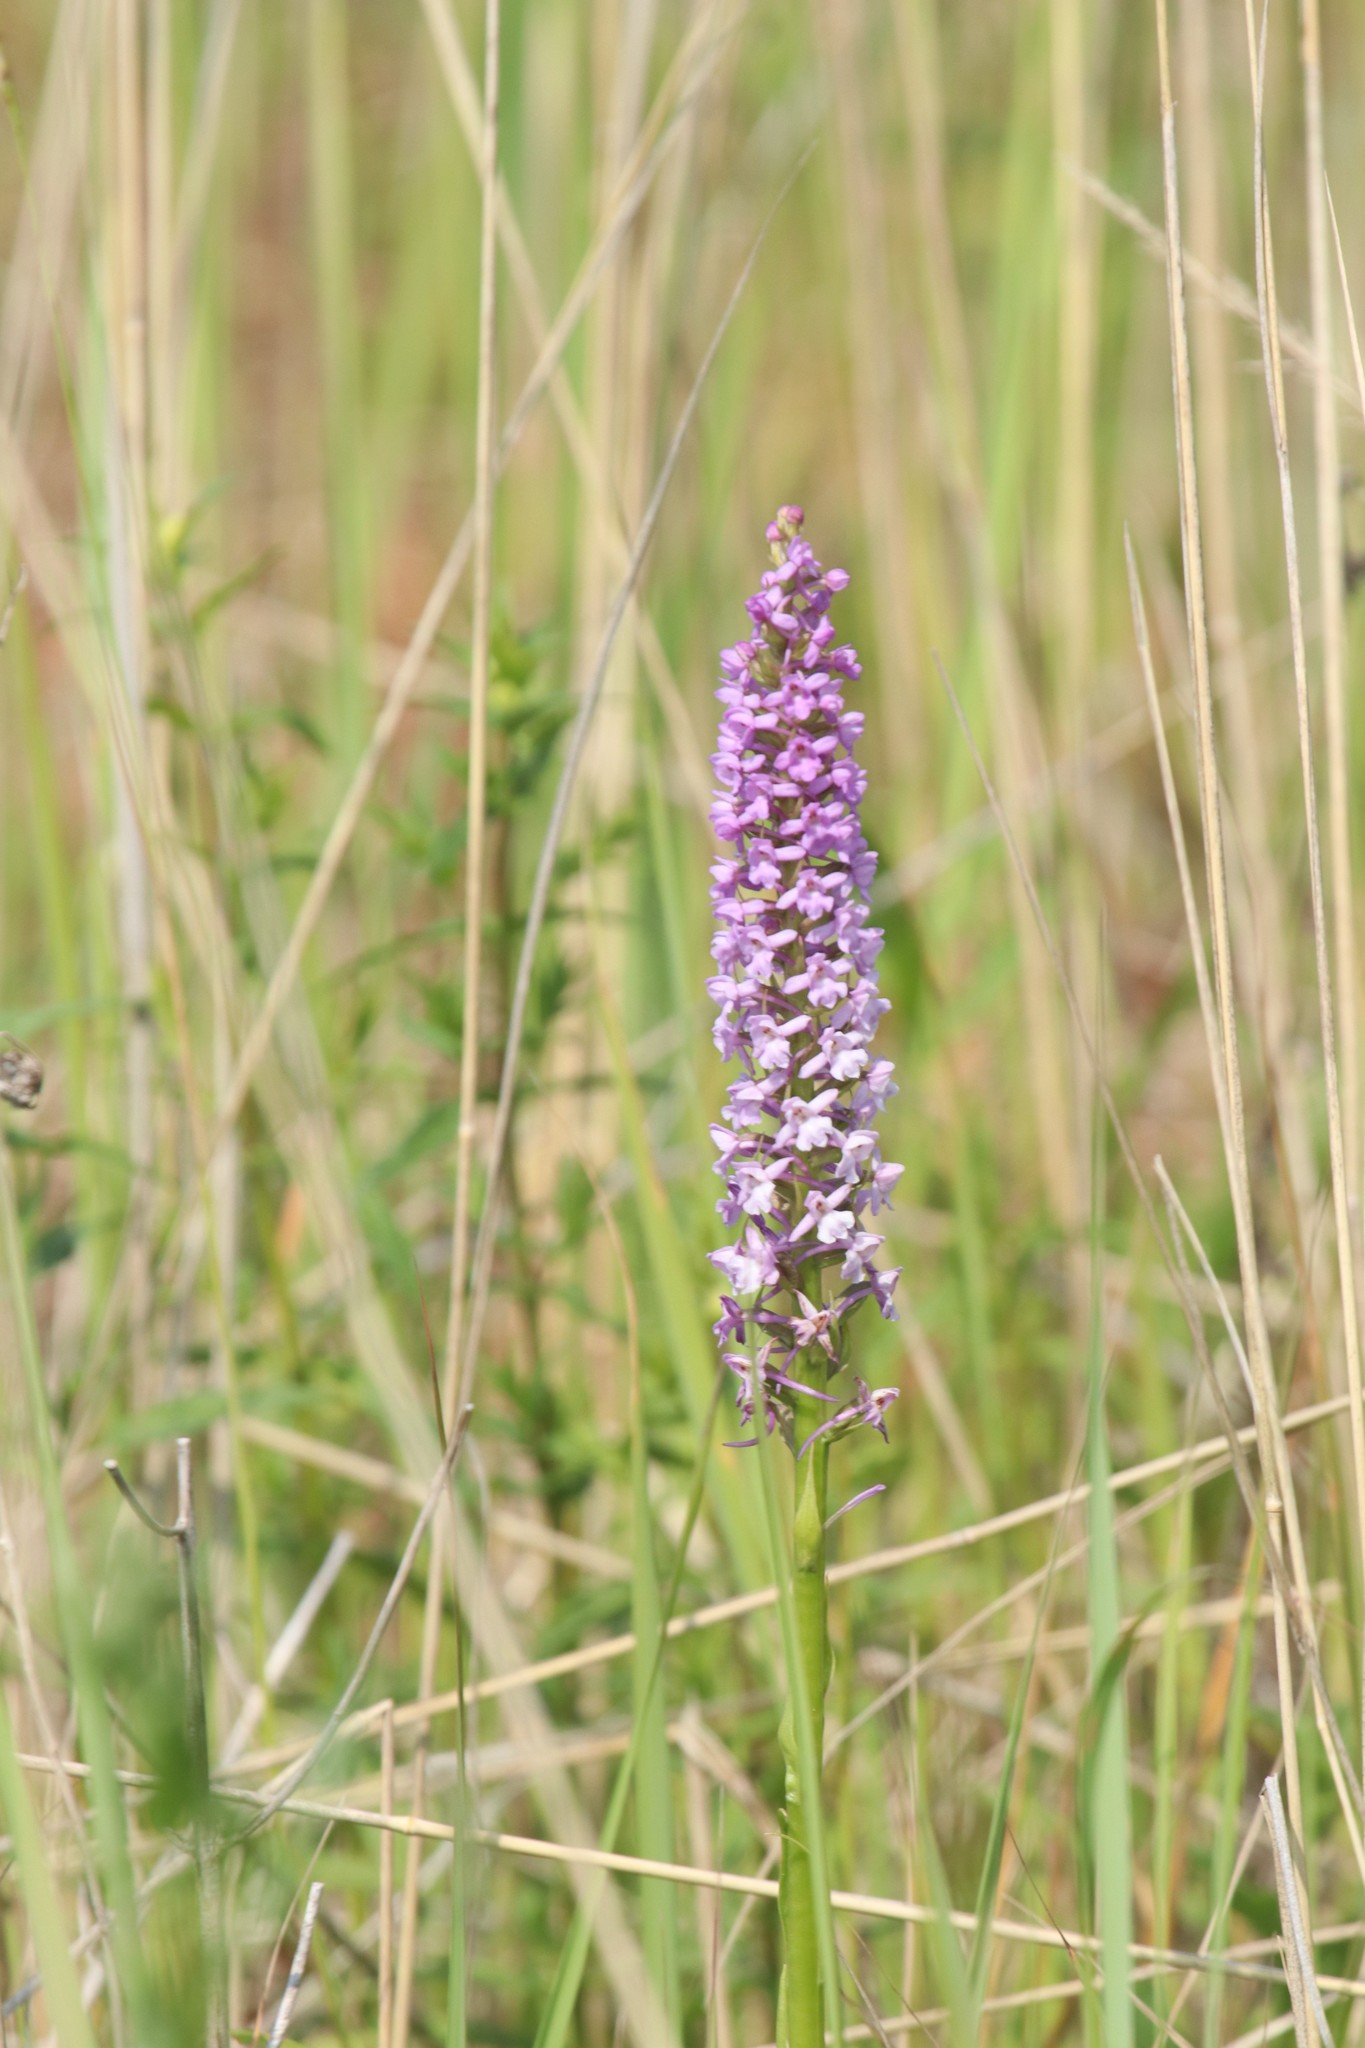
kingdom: Plantae
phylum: Tracheophyta
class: Liliopsida
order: Asparagales
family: Orchidaceae
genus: Gymnadenia
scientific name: Gymnadenia conopsea
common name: Fragrant orchid
